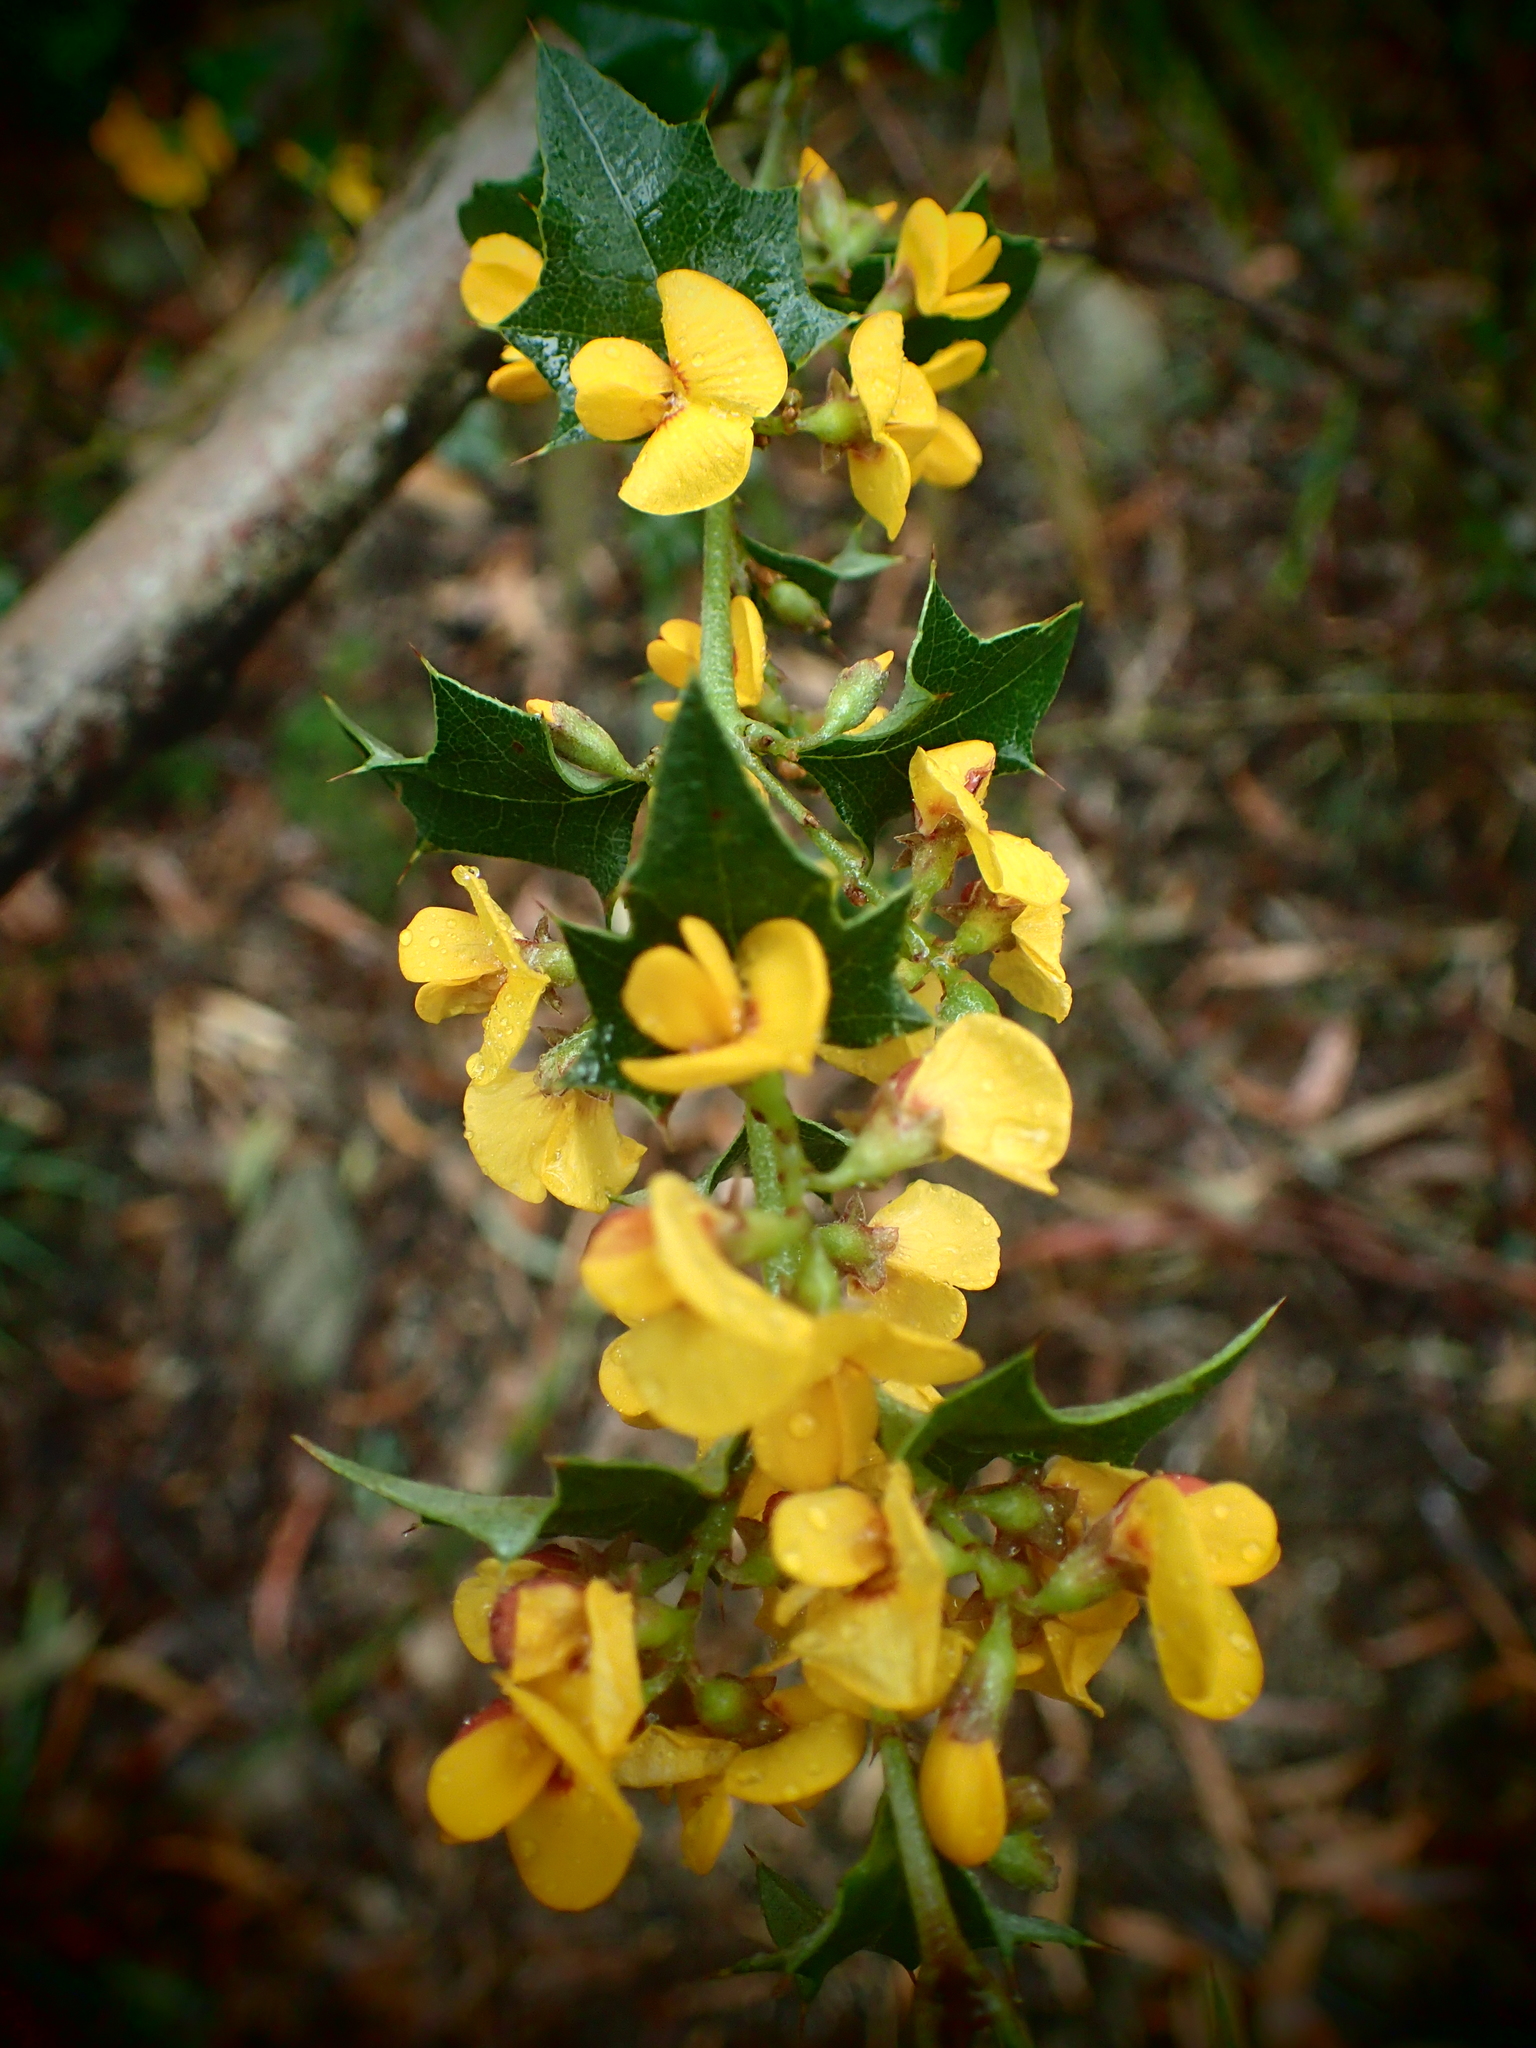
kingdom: Plantae
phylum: Tracheophyta
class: Magnoliopsida
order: Fabales
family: Fabaceae
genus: Podolobium
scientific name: Podolobium ilicifolium
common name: Native holly
